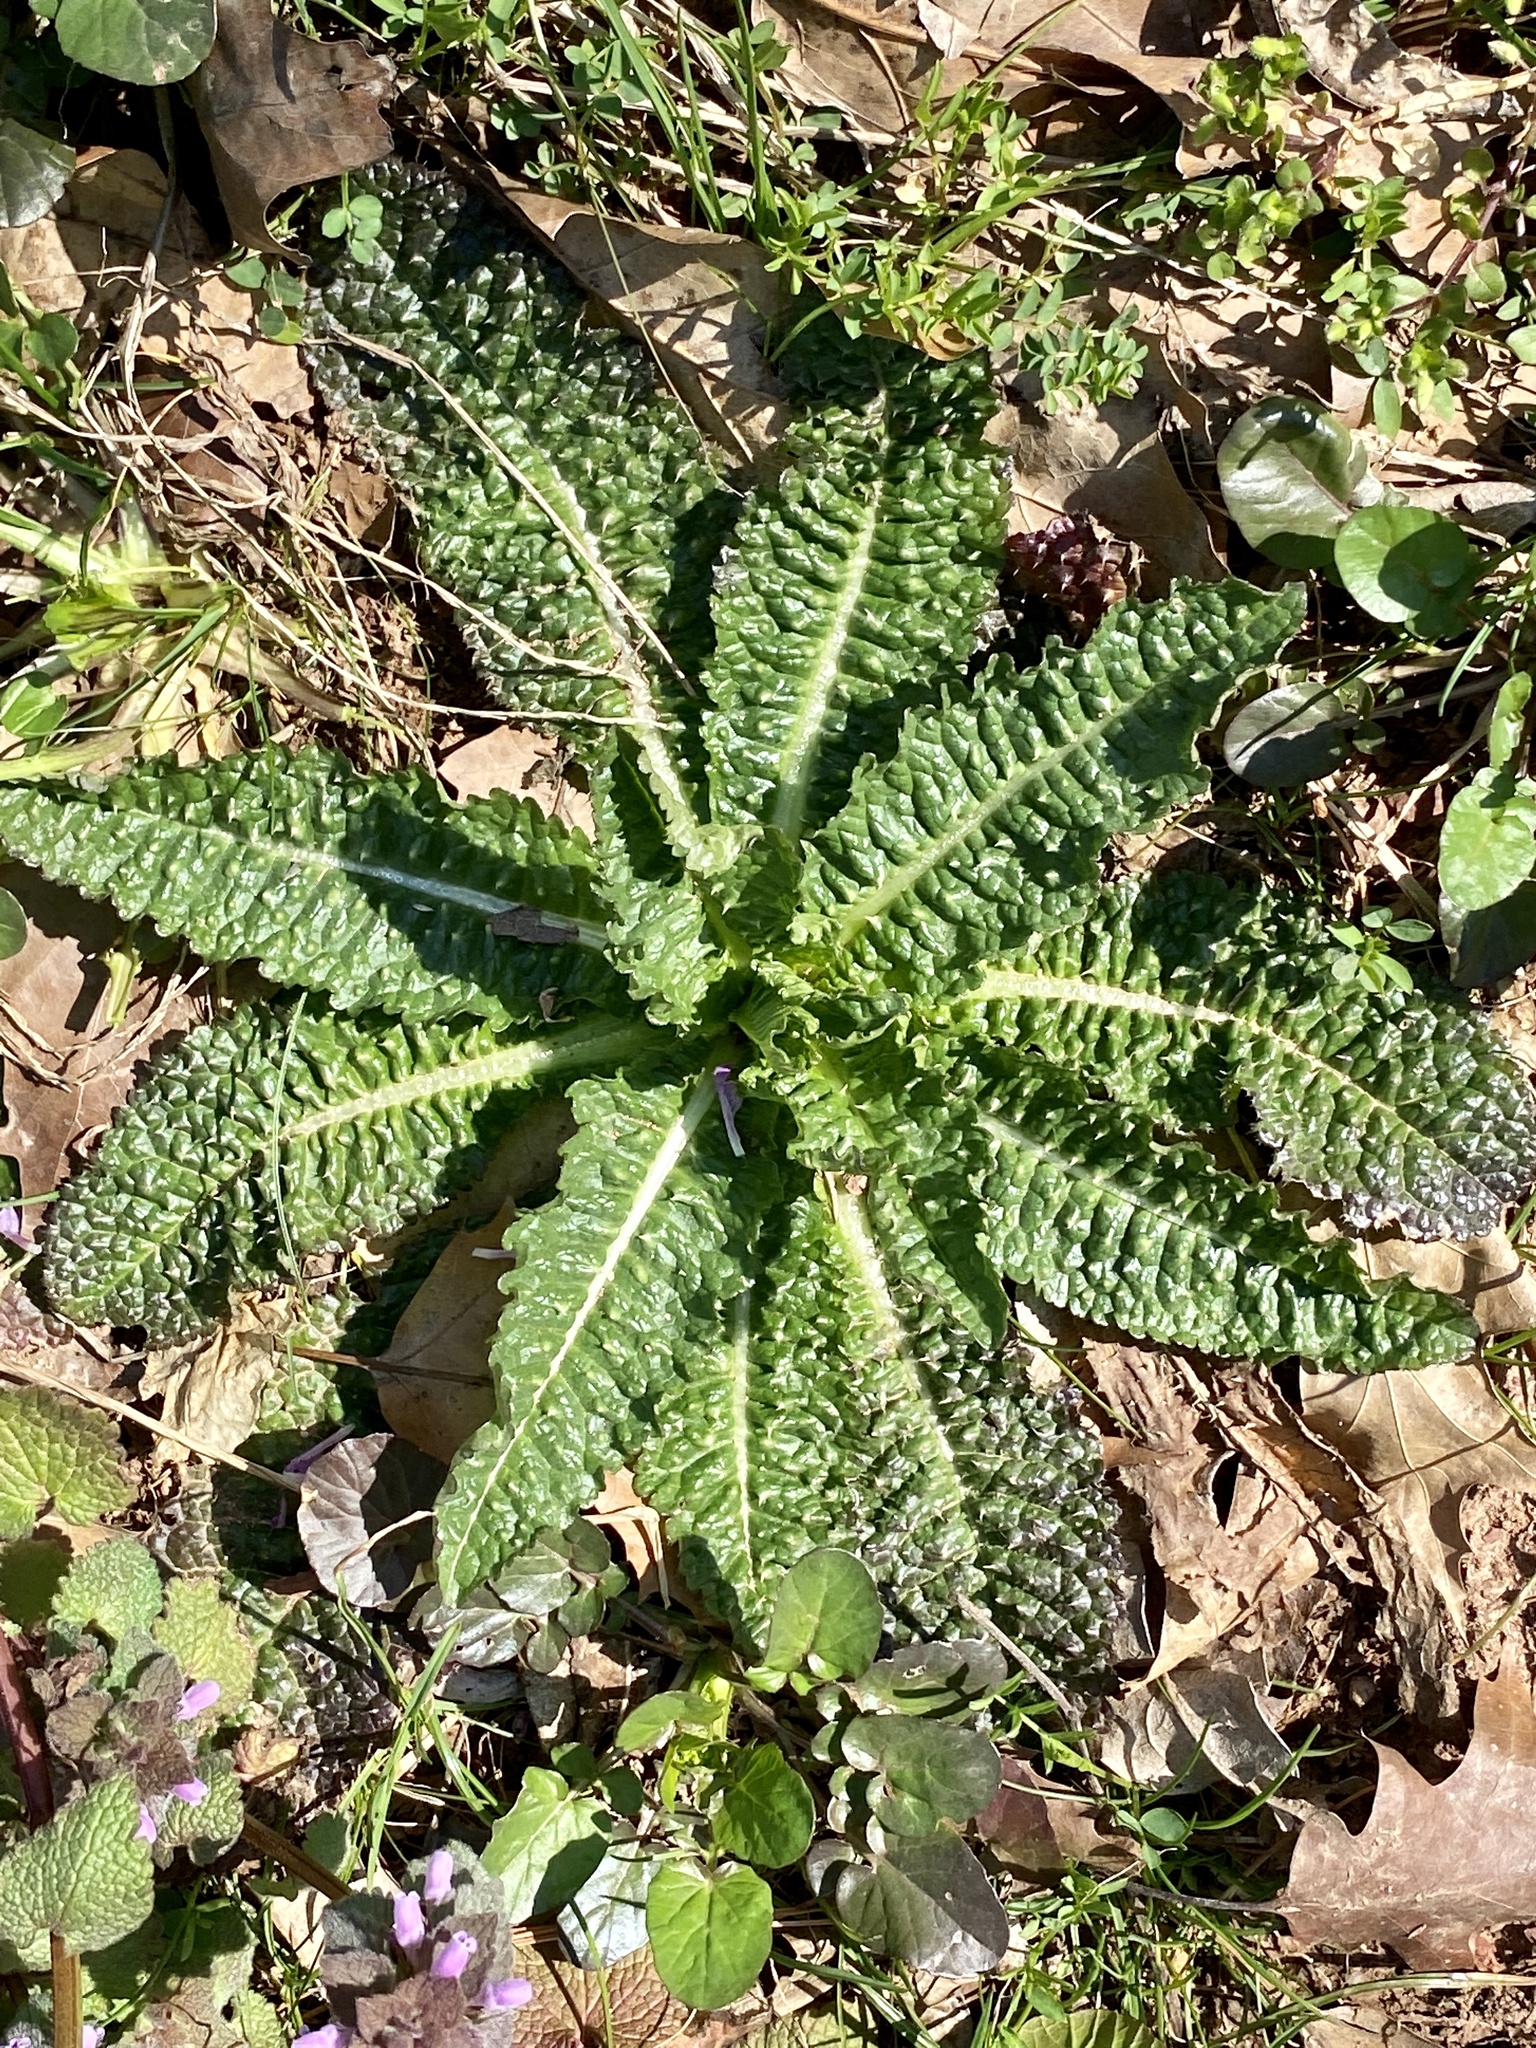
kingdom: Plantae
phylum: Tracheophyta
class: Magnoliopsida
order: Dipsacales
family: Caprifoliaceae
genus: Dipsacus
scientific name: Dipsacus fullonum
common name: Teasel
